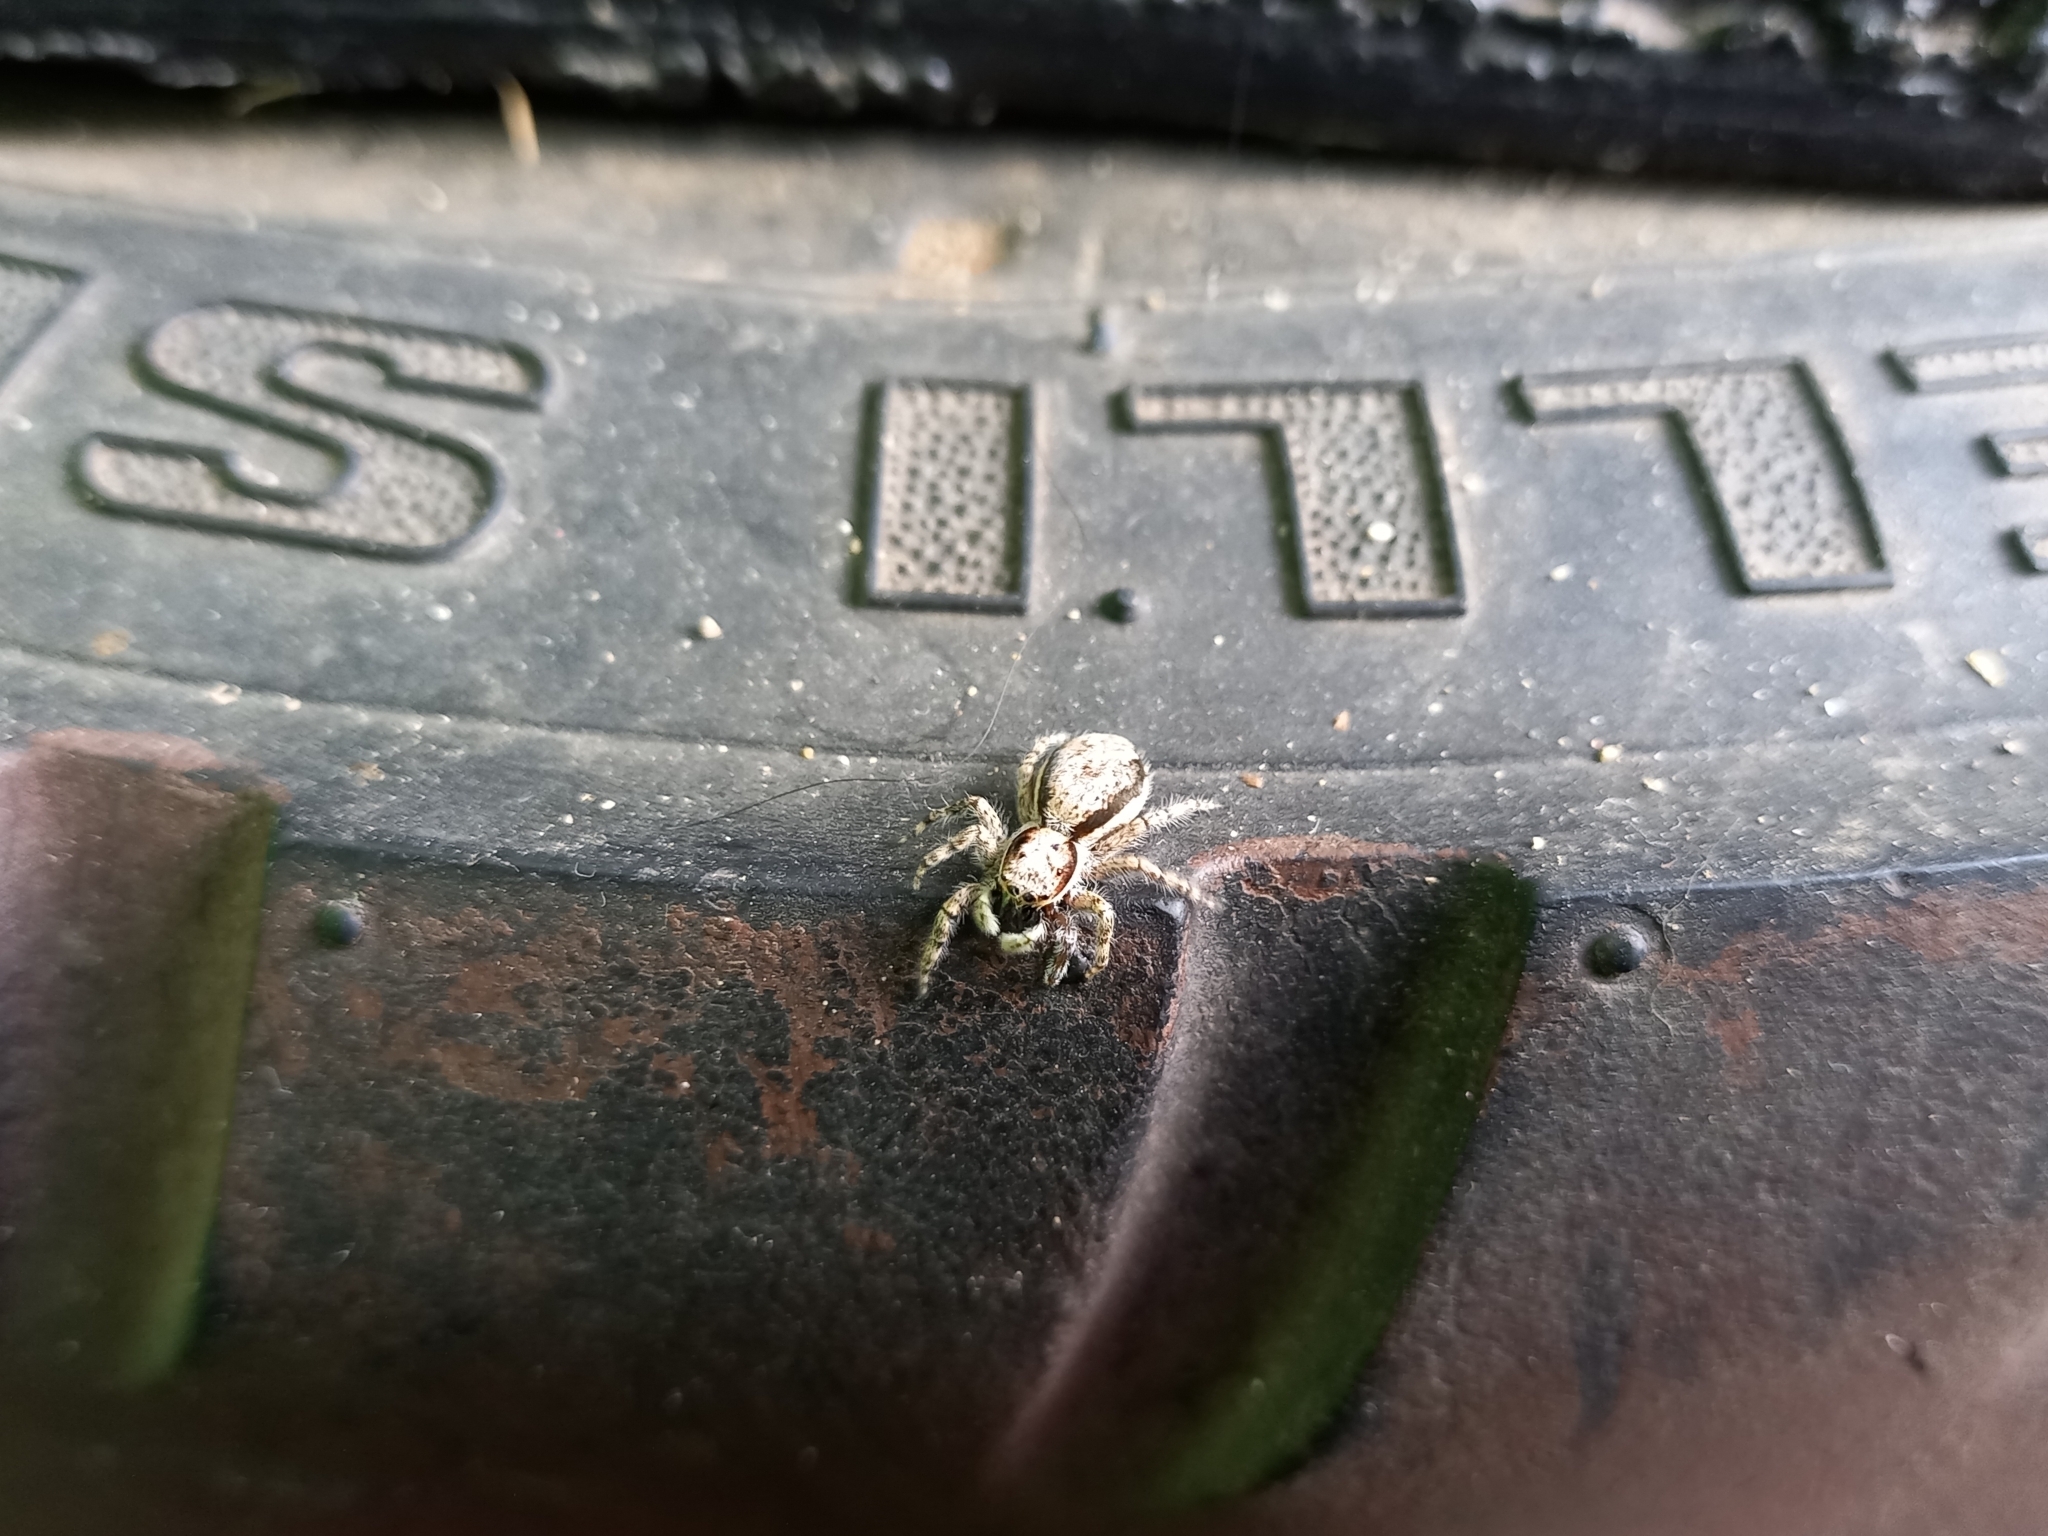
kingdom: Animalia
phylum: Arthropoda
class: Arachnida
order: Araneae
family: Salticidae
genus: Menemerus
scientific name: Menemerus bivittatus
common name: Gray wall jumper
